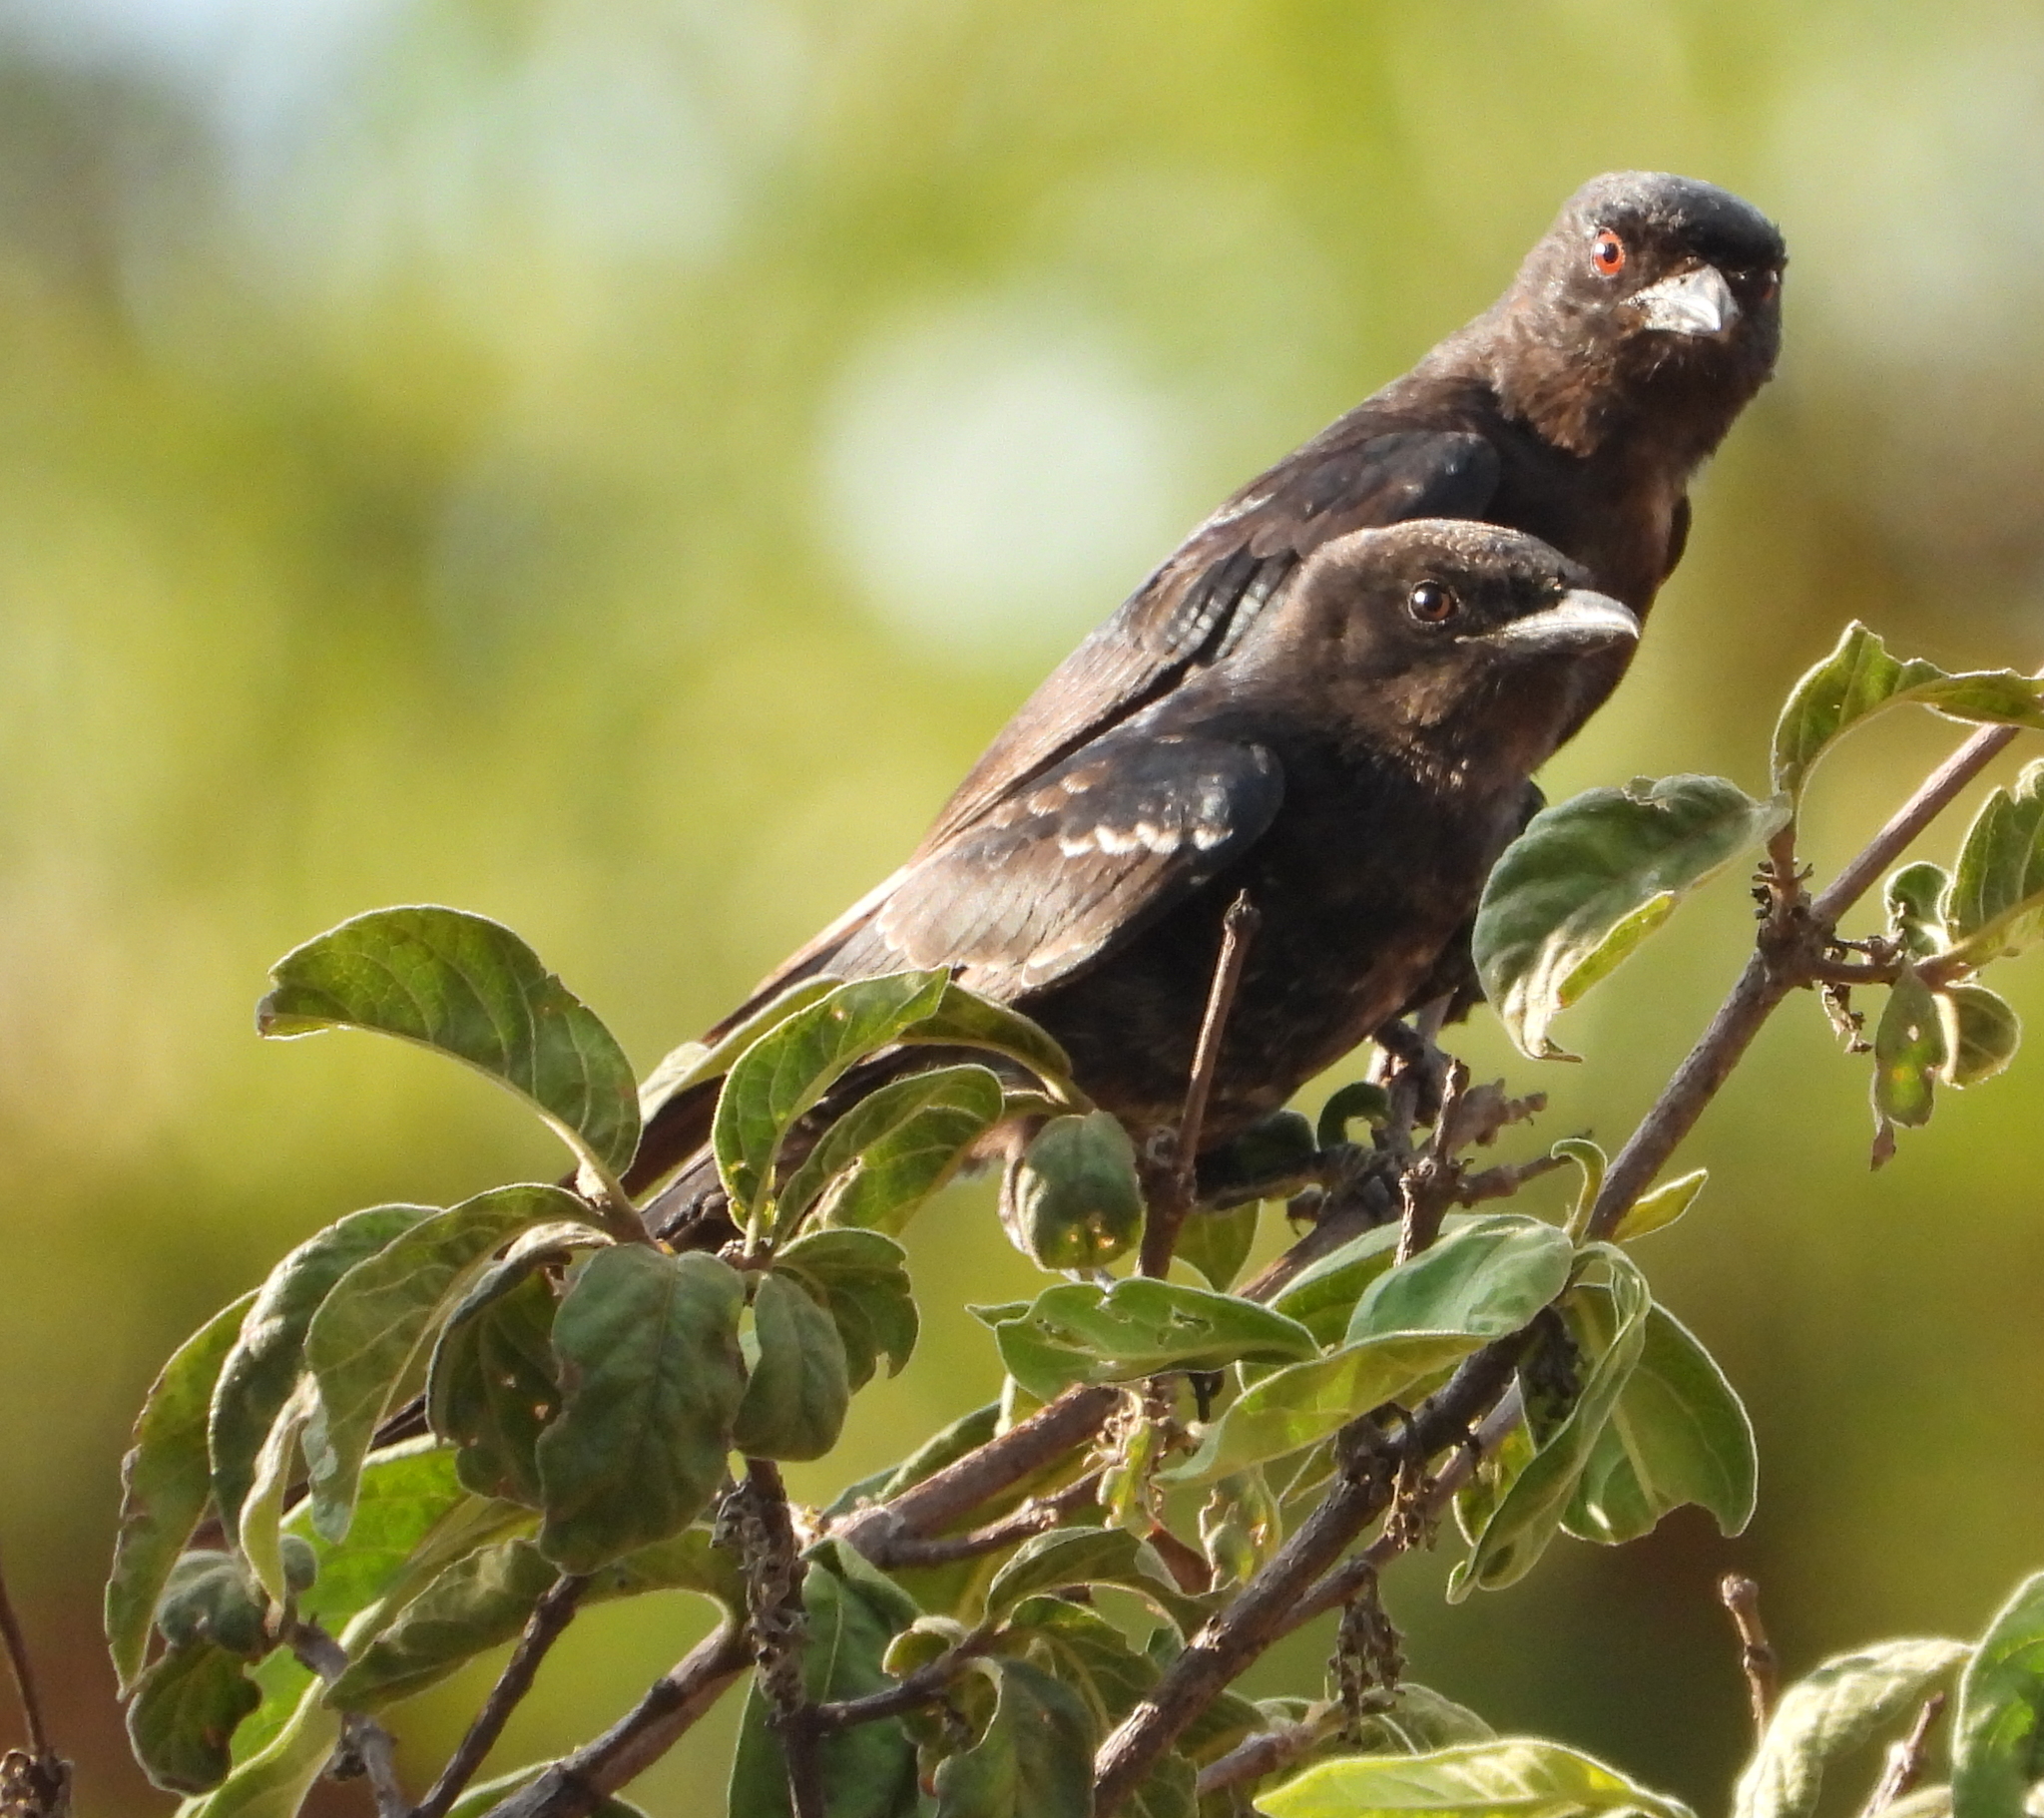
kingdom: Animalia
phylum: Chordata
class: Aves
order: Passeriformes
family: Dicruridae
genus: Dicrurus
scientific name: Dicrurus adsimilis
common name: Fork-tailed drongo
